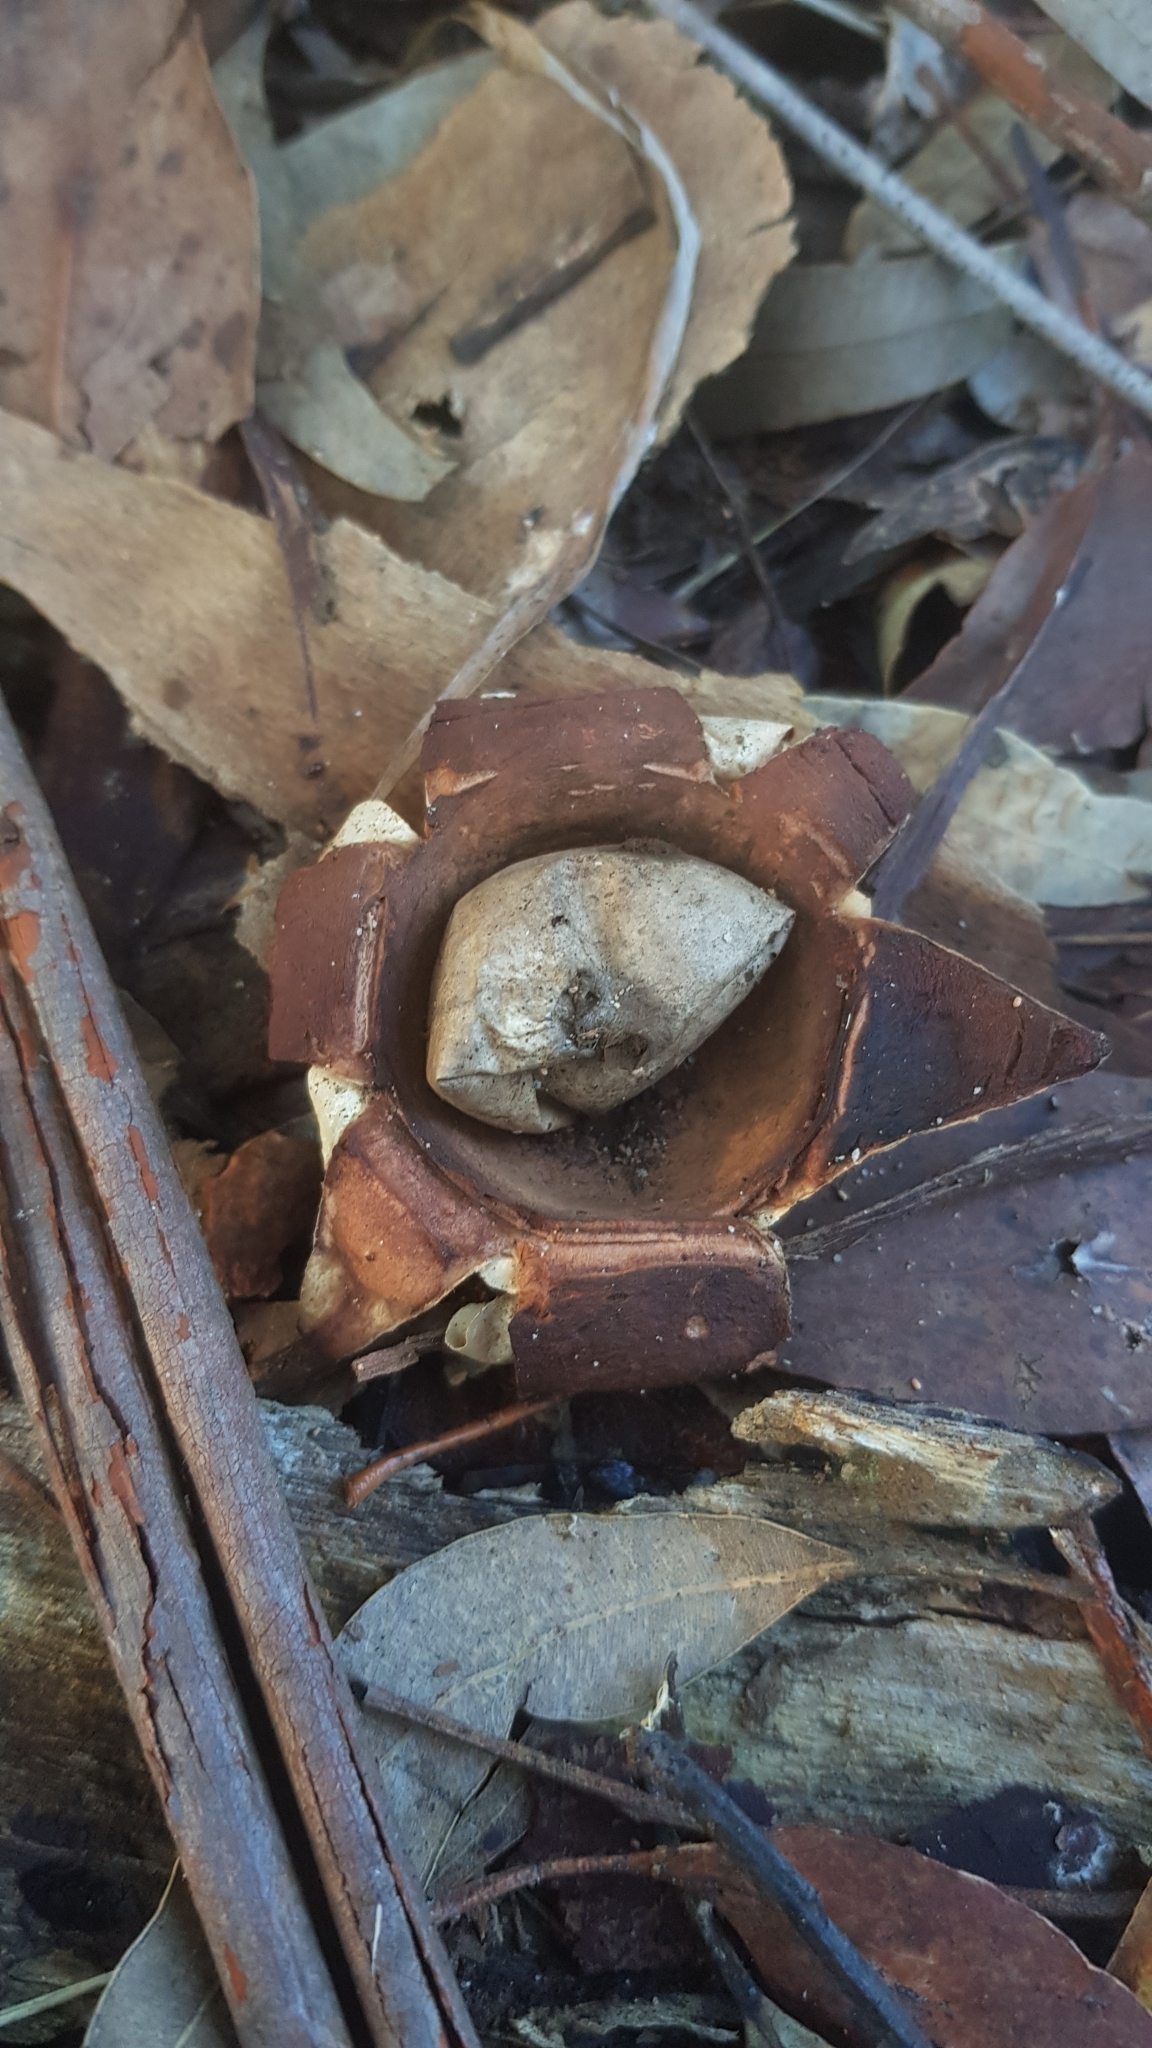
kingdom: Fungi
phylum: Basidiomycota
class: Agaricomycetes
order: Geastrales
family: Geastraceae
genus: Geastrum
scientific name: Geastrum triplex
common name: Collared earthstar
